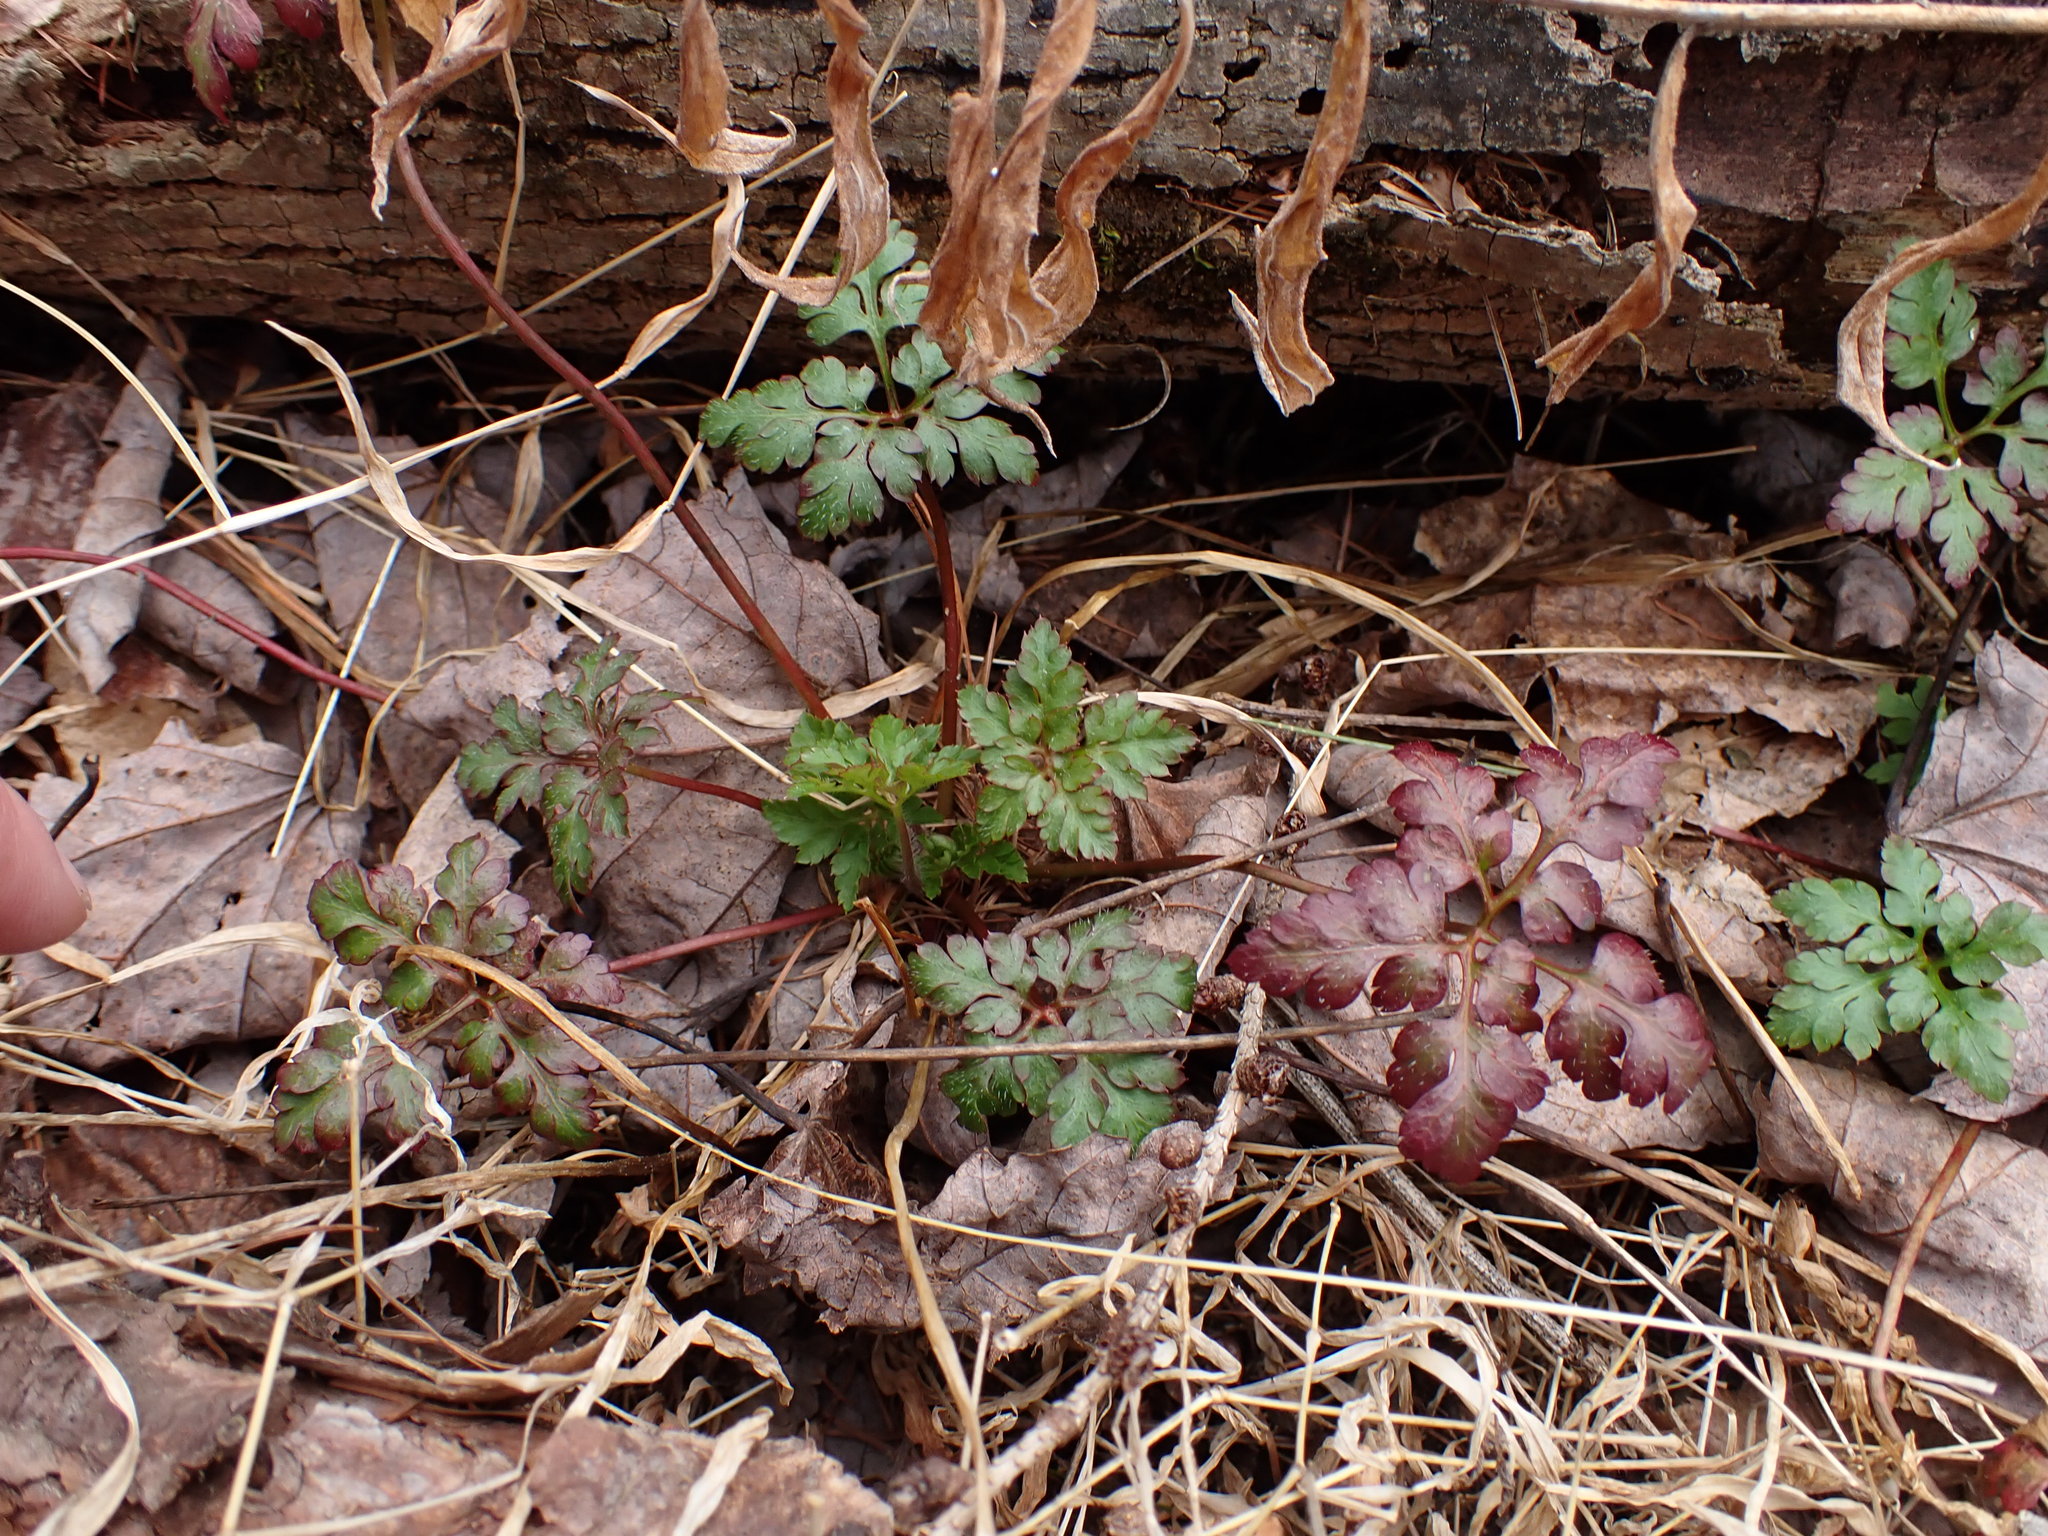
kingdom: Plantae
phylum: Tracheophyta
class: Magnoliopsida
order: Geraniales
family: Geraniaceae
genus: Geranium
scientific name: Geranium robertianum
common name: Herb-robert
